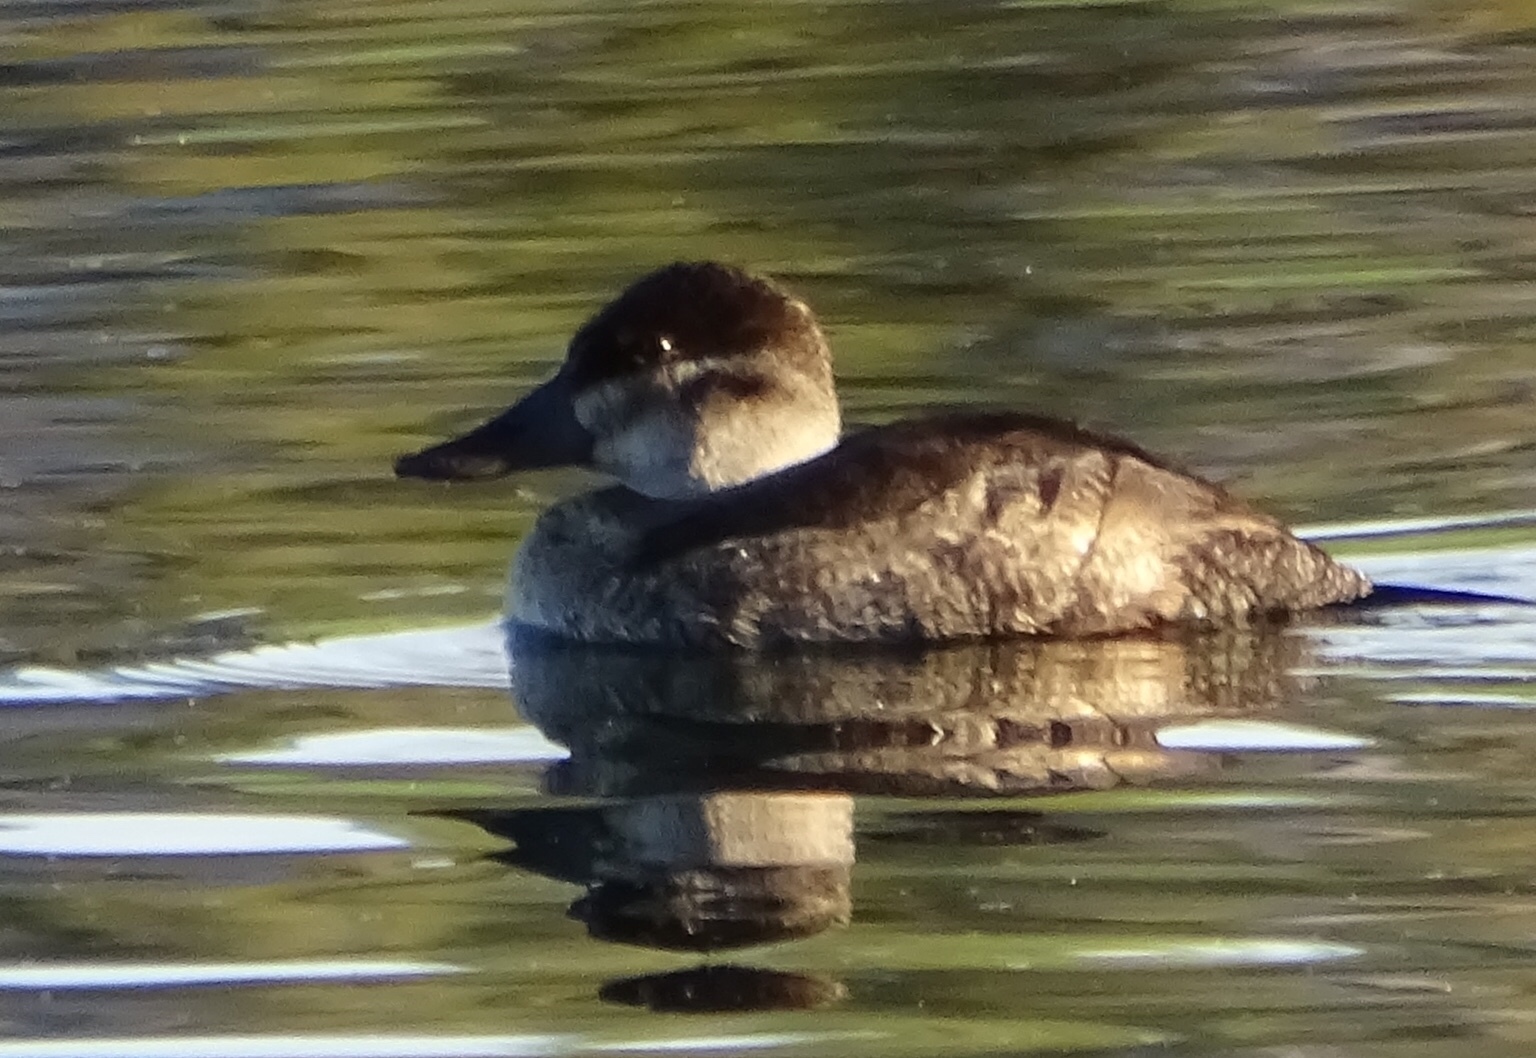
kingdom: Animalia
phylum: Chordata
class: Aves
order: Anseriformes
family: Anatidae
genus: Oxyura
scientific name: Oxyura jamaicensis
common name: Ruddy duck
